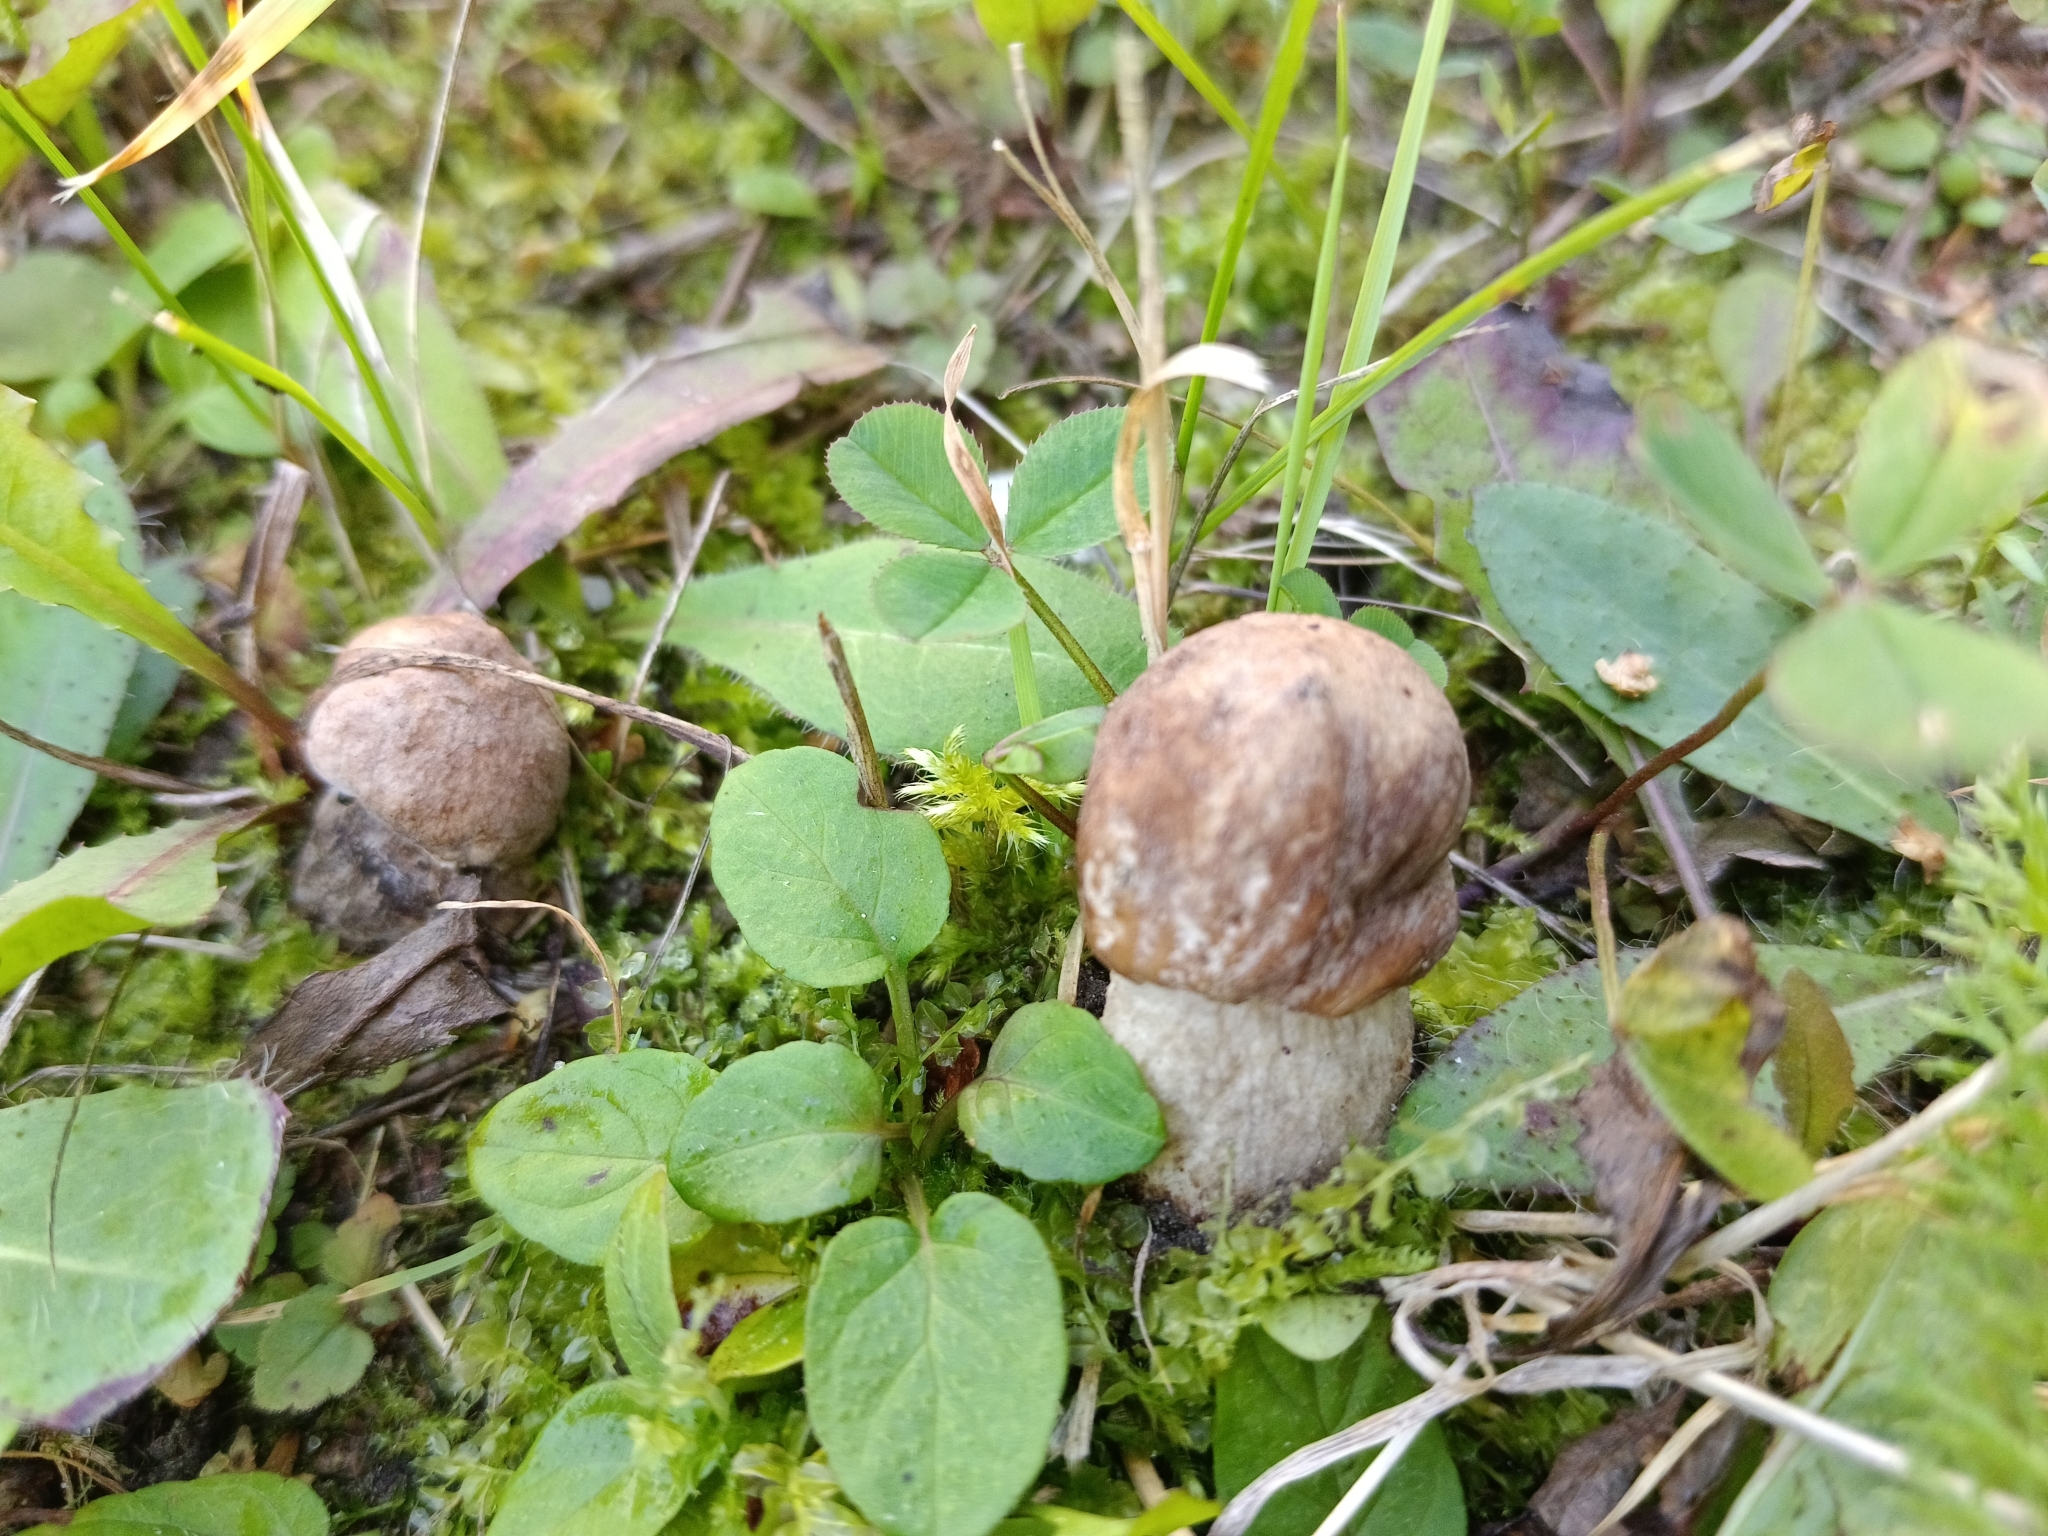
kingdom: Fungi
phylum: Basidiomycota
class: Agaricomycetes
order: Boletales
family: Boletaceae
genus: Leccinum
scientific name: Leccinum scabrum
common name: Blushing bolete
